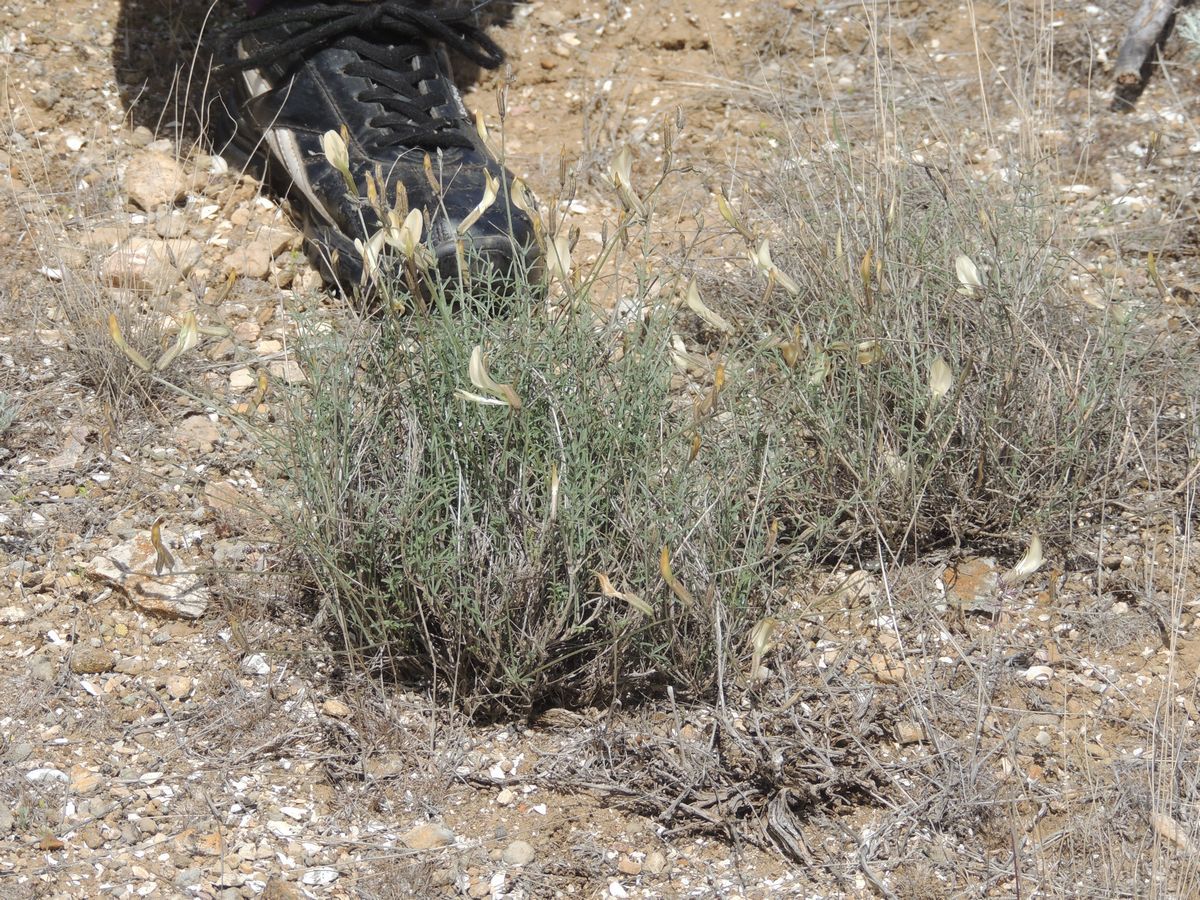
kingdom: Plantae
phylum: Tracheophyta
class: Magnoliopsida
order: Fabales
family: Fabaceae
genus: Astragalus
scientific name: Astragalus ucrainicus
